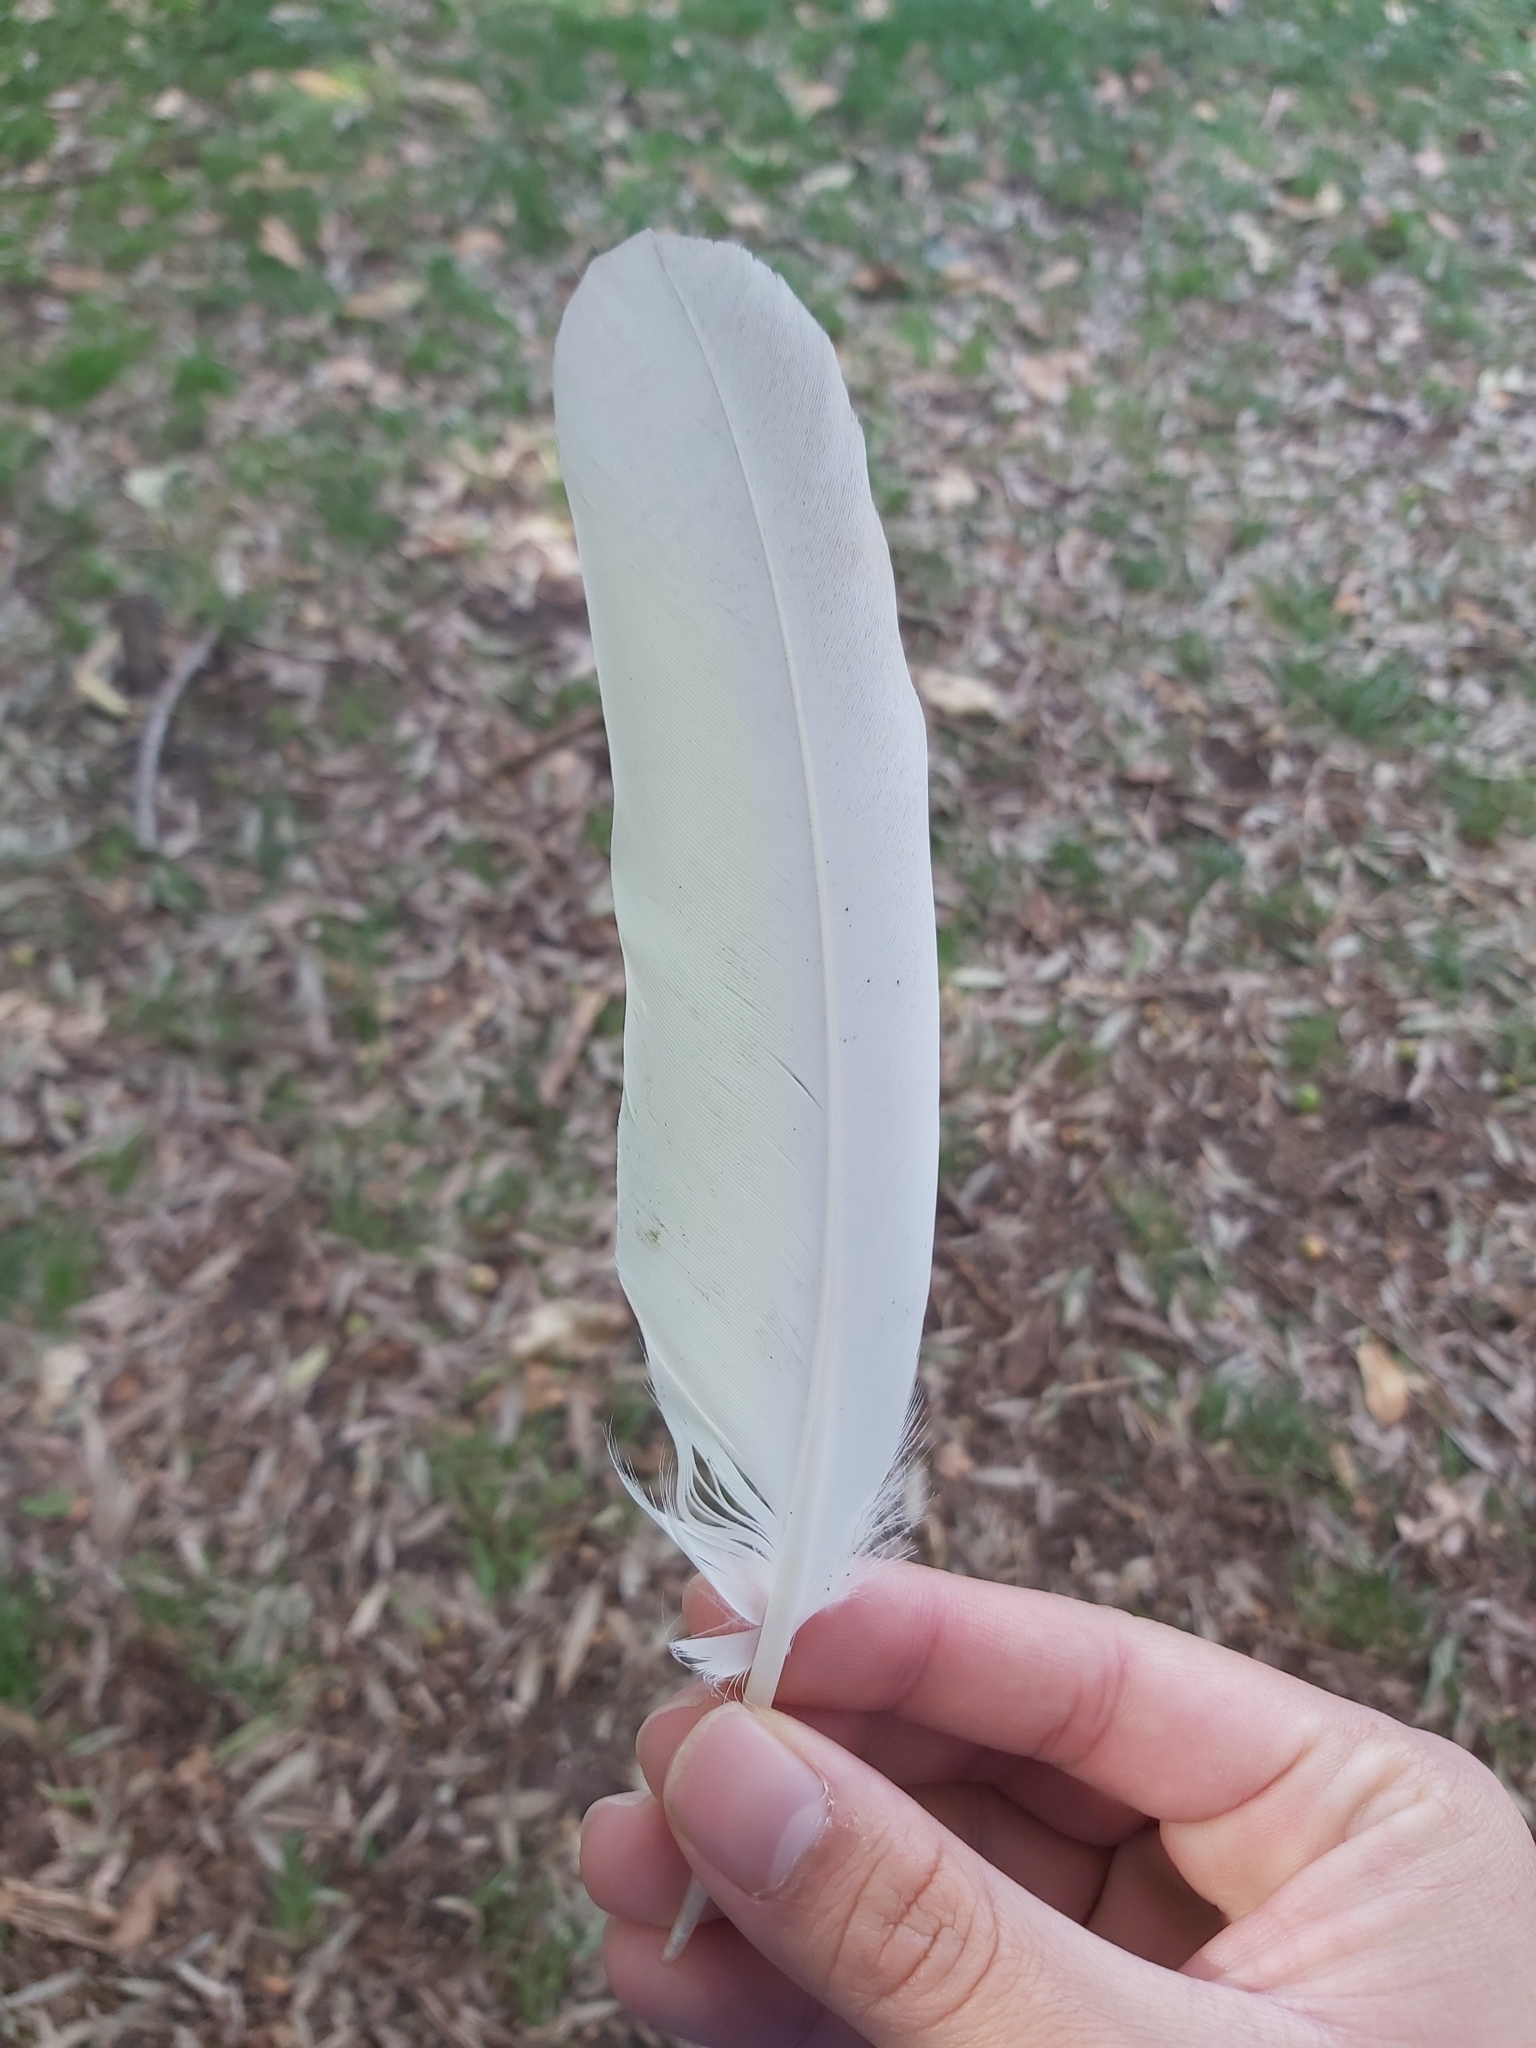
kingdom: Animalia
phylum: Chordata
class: Aves
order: Psittaciformes
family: Psittacidae
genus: Cacatua
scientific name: Cacatua galerita
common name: Sulphur-crested cockatoo
